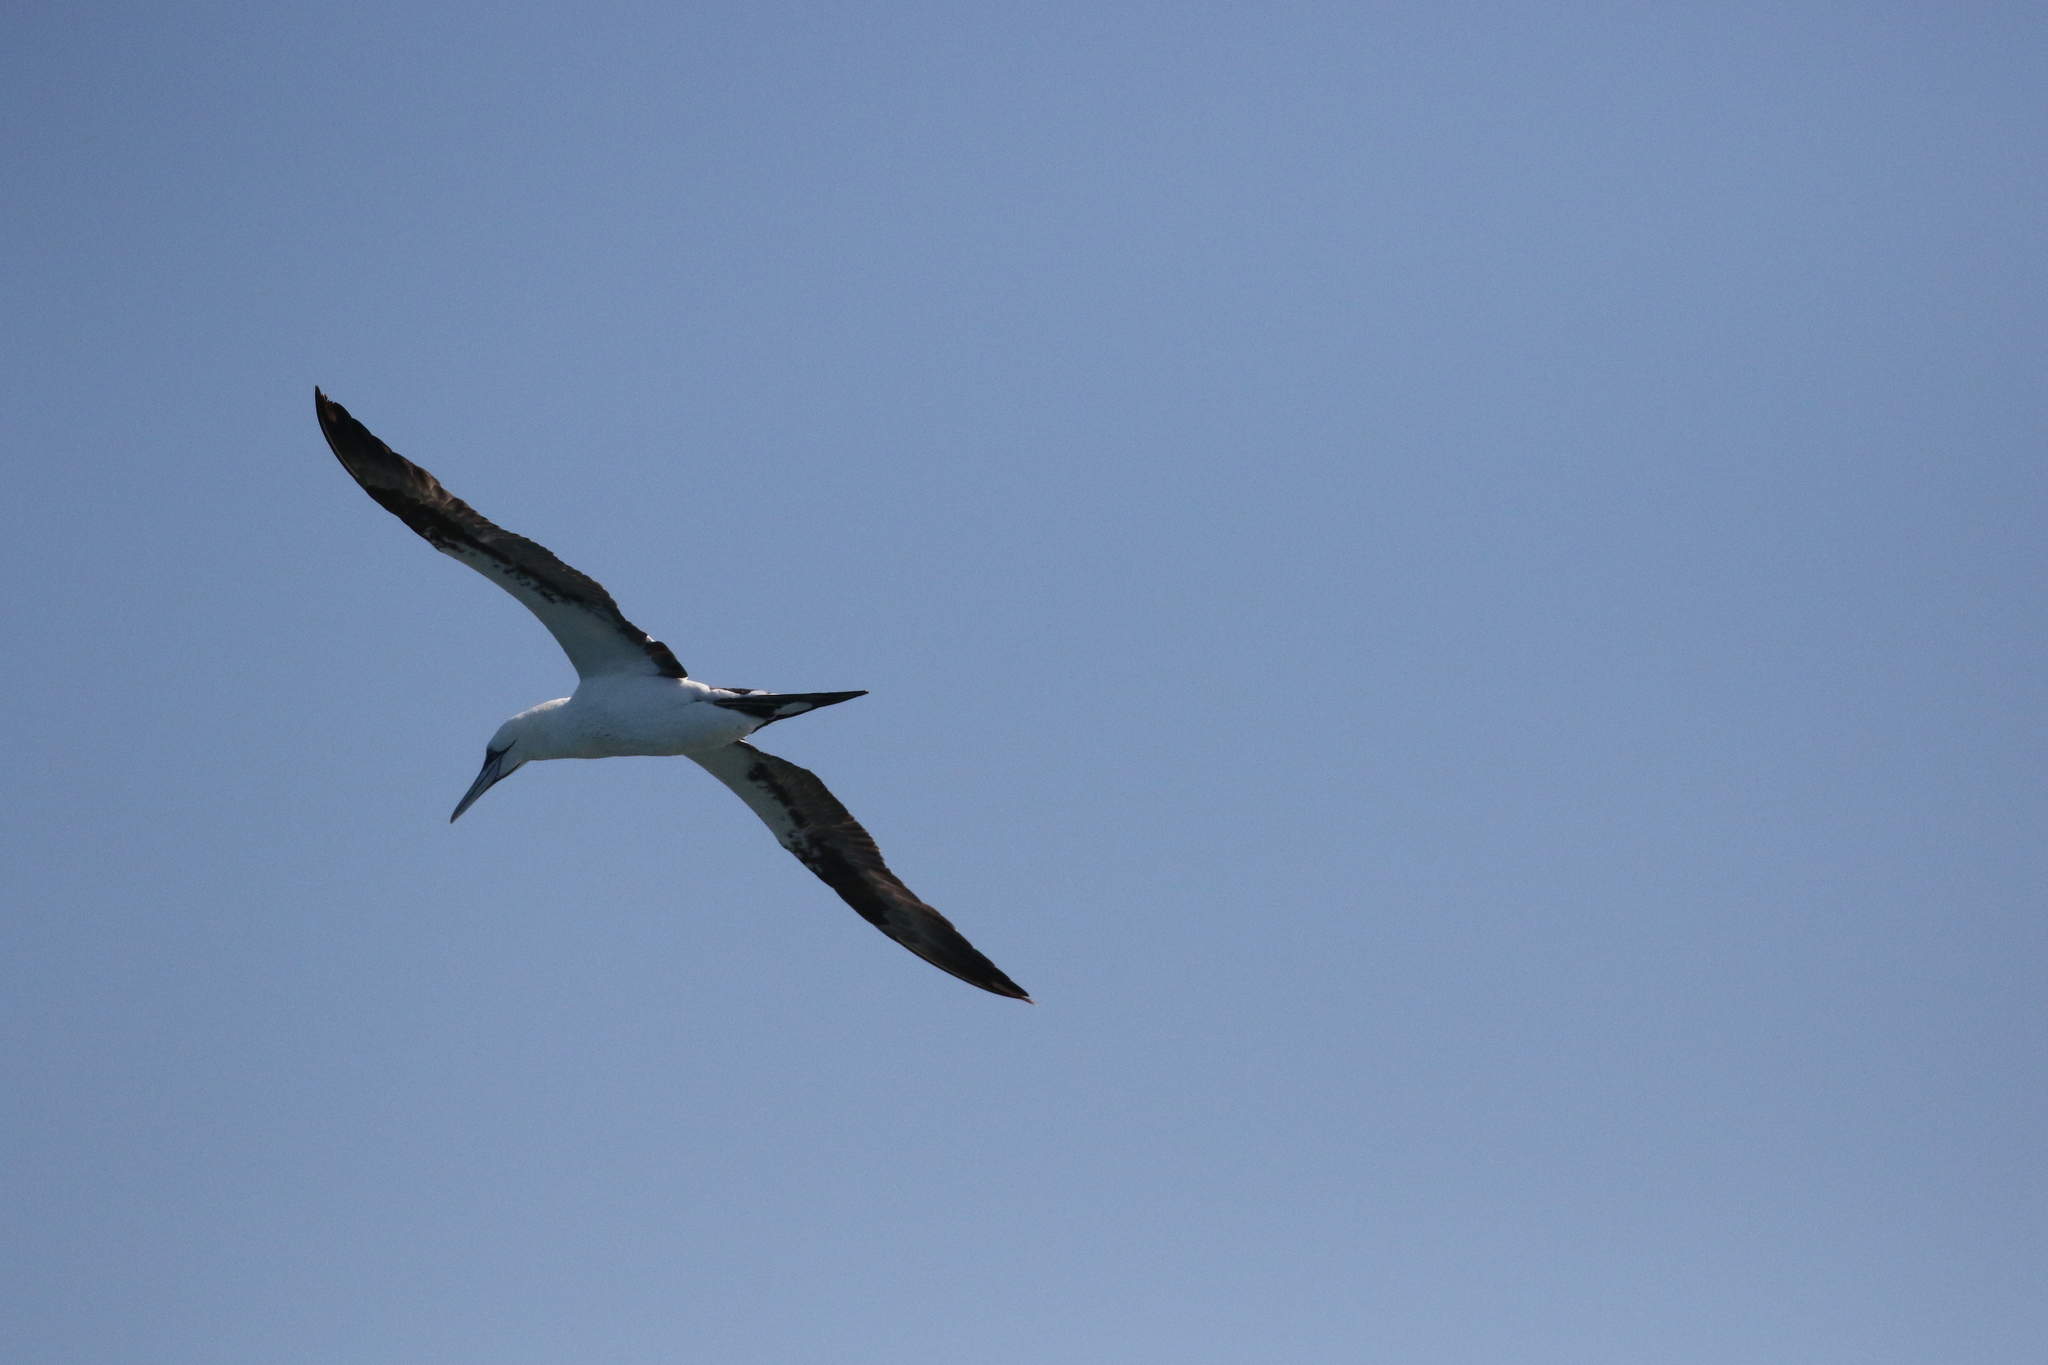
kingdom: Animalia
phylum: Chordata
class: Aves
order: Suliformes
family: Sulidae
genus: Morus
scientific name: Morus bassanus
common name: Northern gannet
